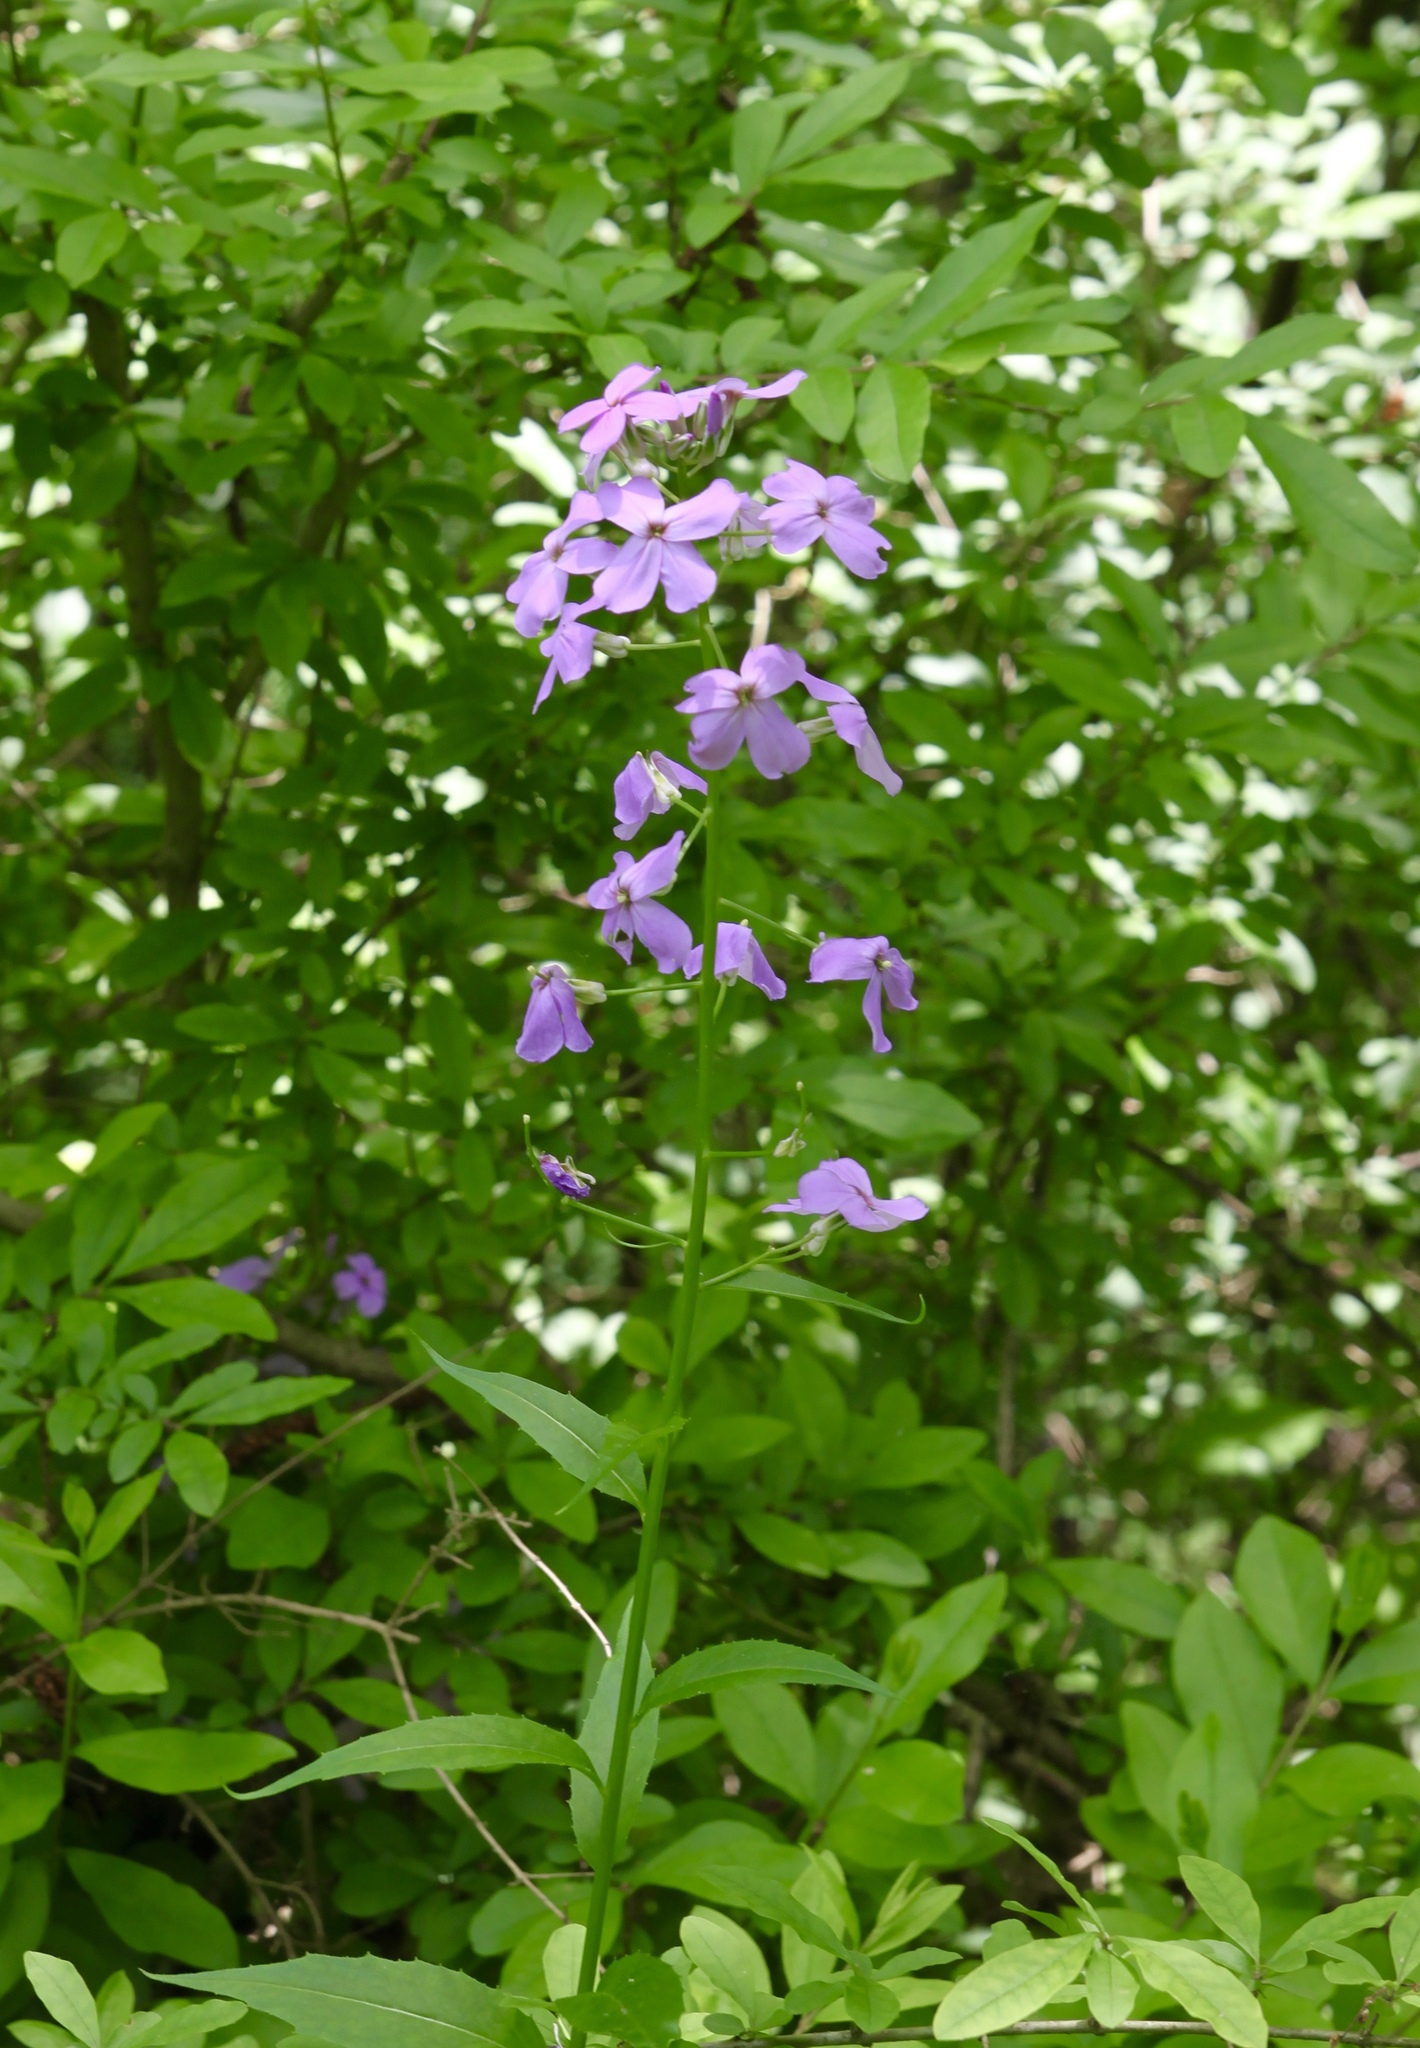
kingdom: Plantae
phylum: Tracheophyta
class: Magnoliopsida
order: Brassicales
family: Brassicaceae
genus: Hesperis
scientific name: Hesperis matronalis
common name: Dame's-violet
